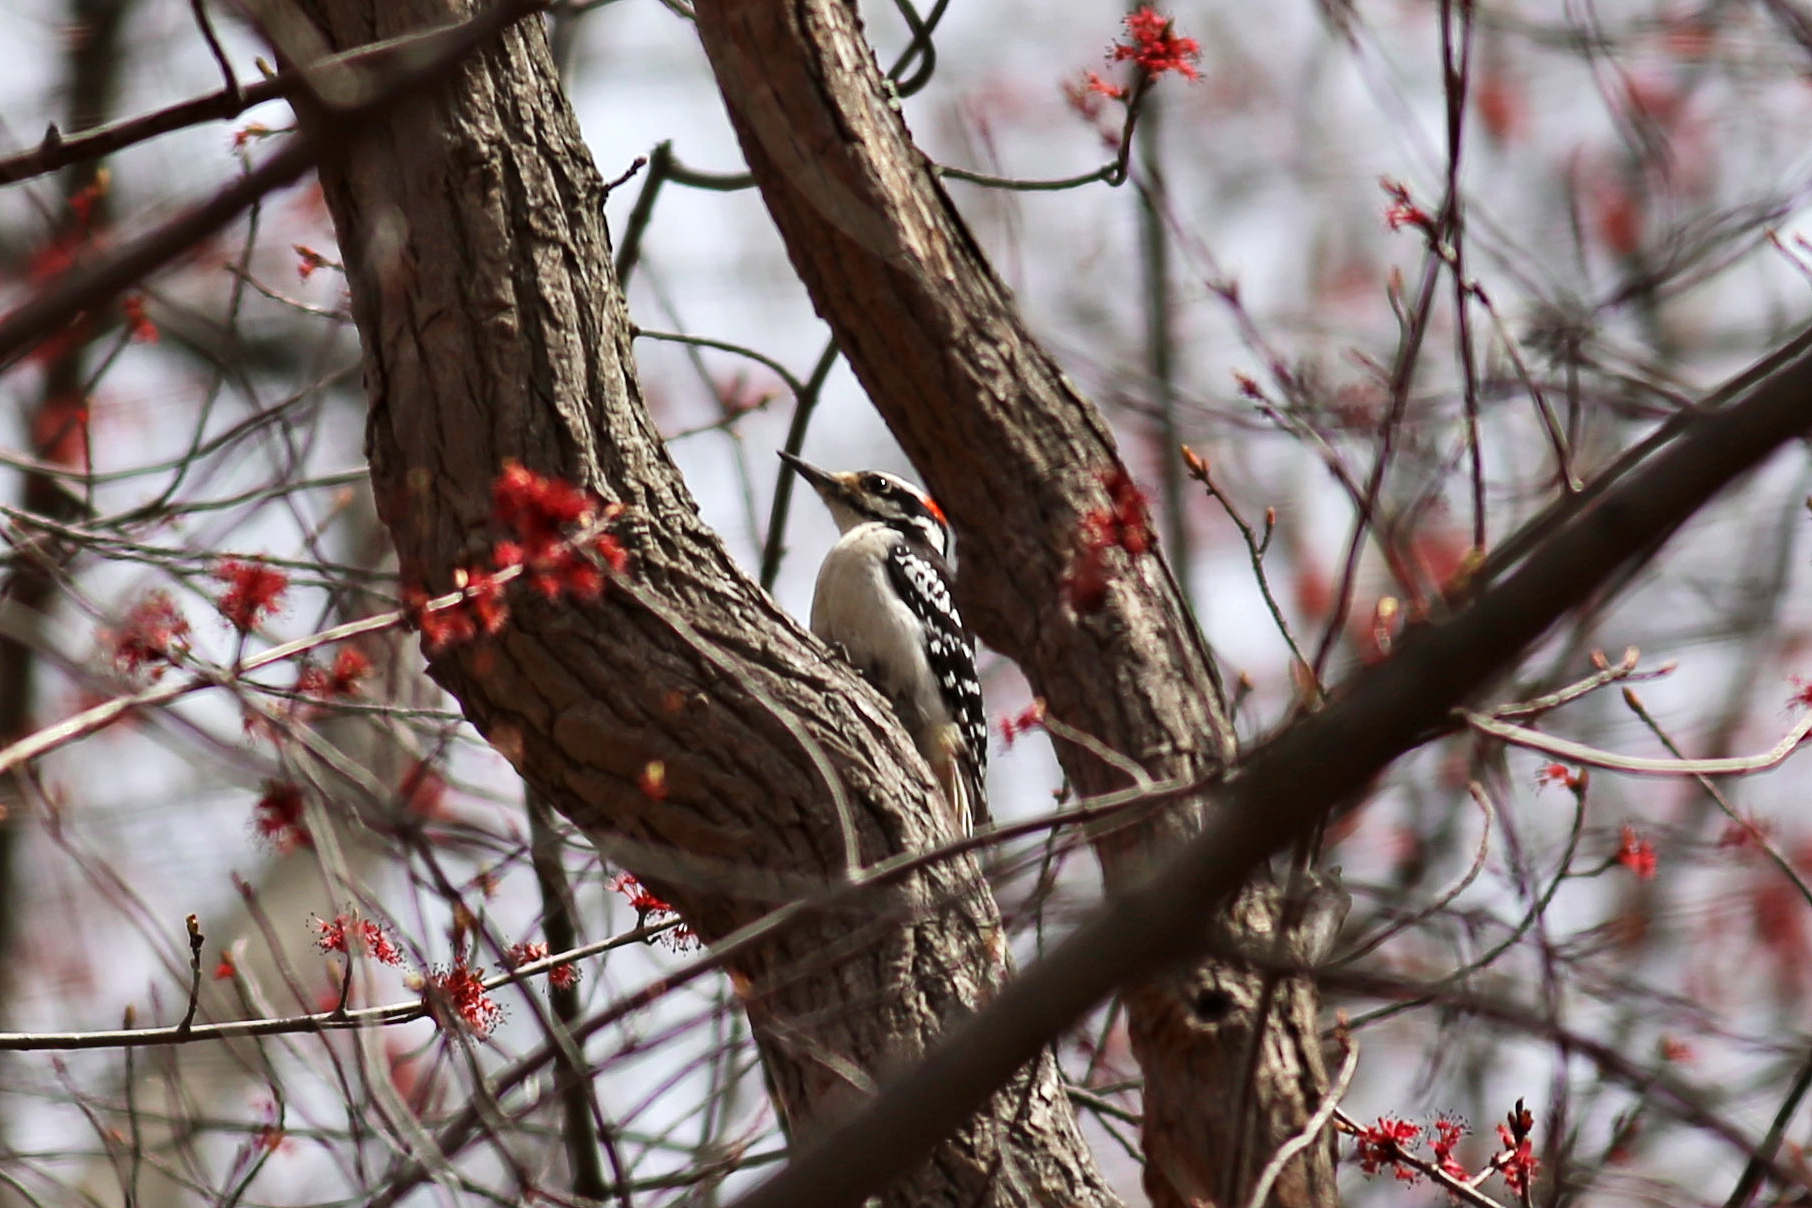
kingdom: Animalia
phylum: Chordata
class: Aves
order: Piciformes
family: Picidae
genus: Leuconotopicus
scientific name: Leuconotopicus villosus
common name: Hairy woodpecker
